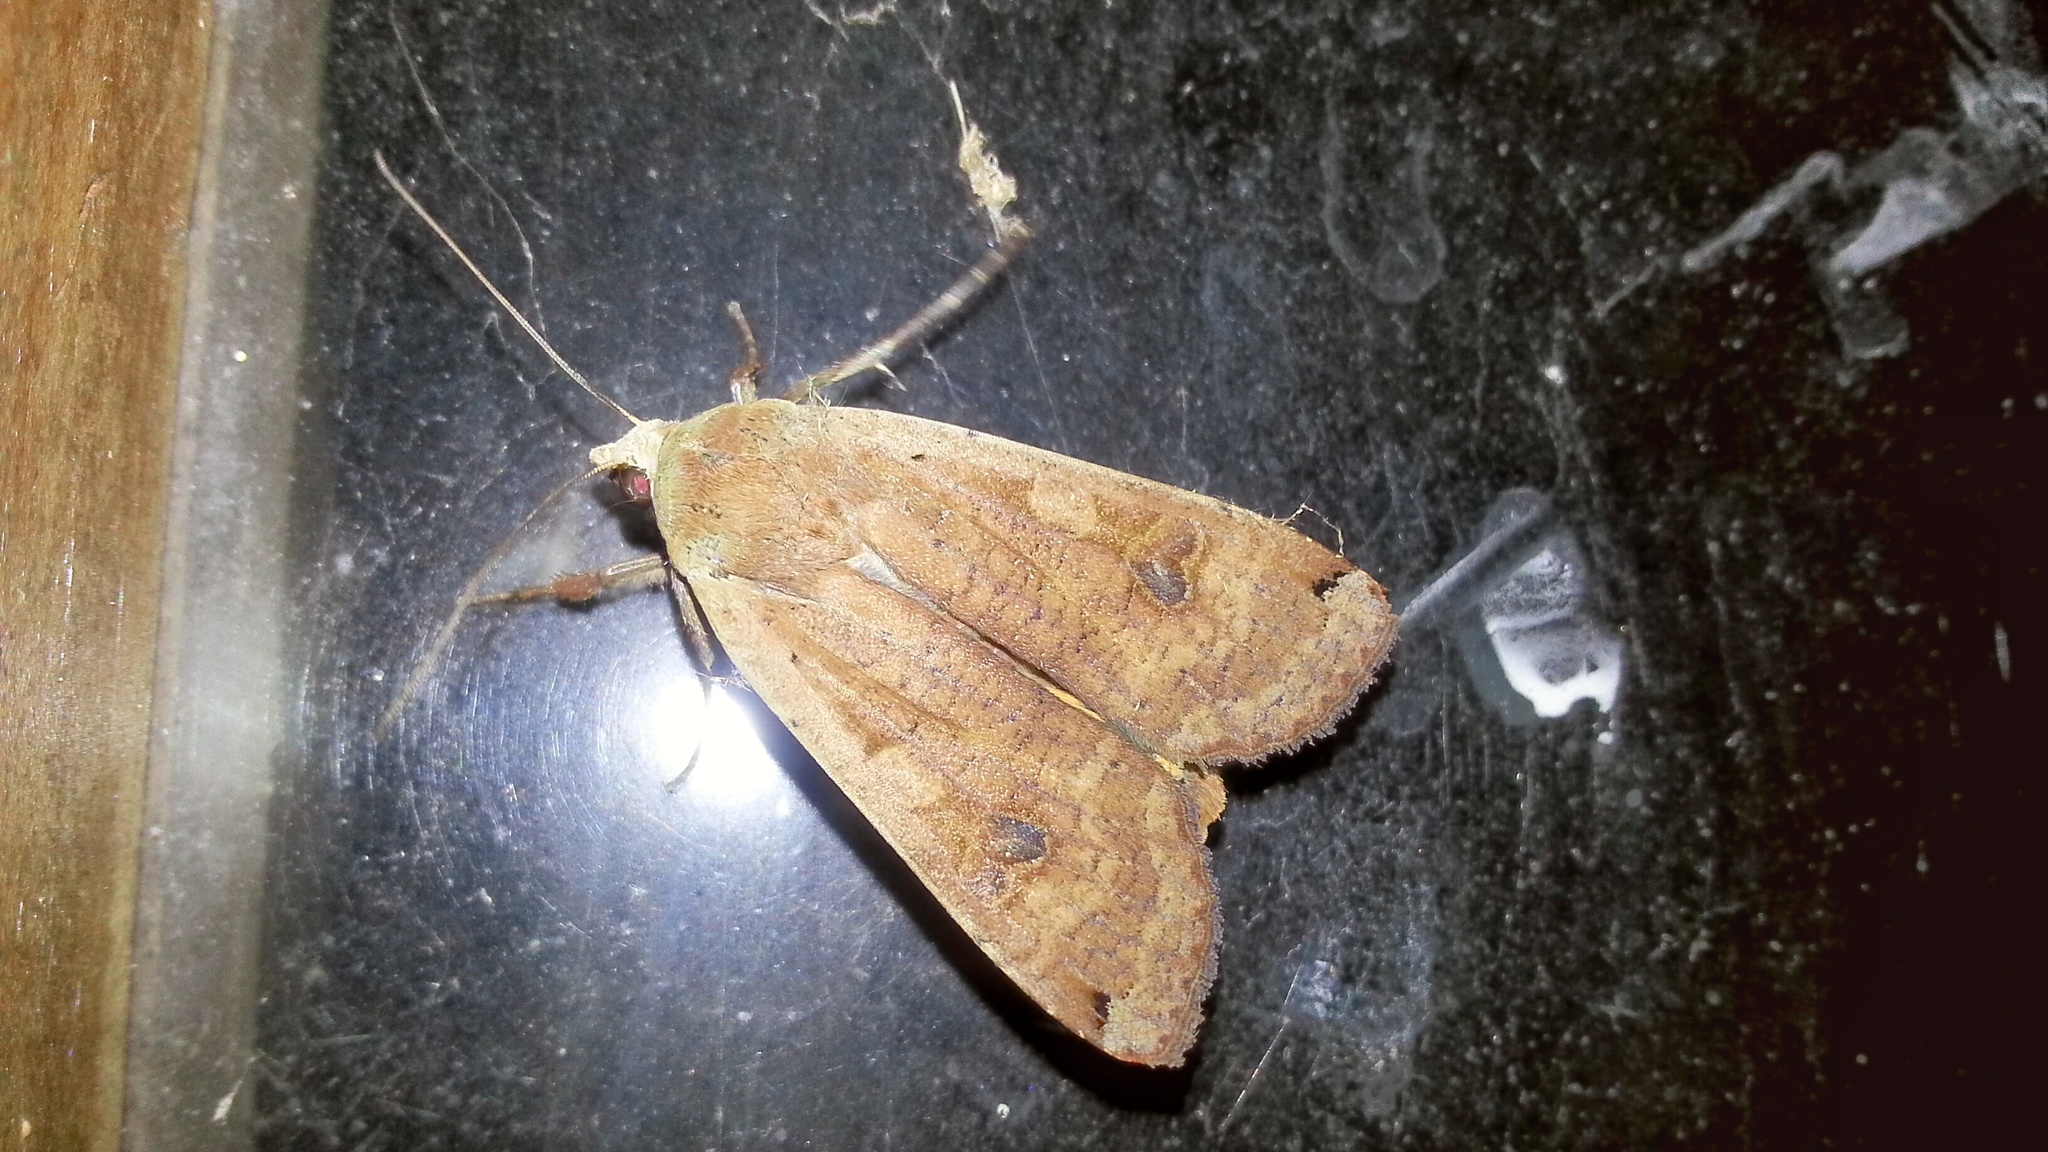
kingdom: Animalia
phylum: Arthropoda
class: Insecta
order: Lepidoptera
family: Noctuidae
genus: Noctua
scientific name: Noctua pronuba
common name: Large yellow underwing
